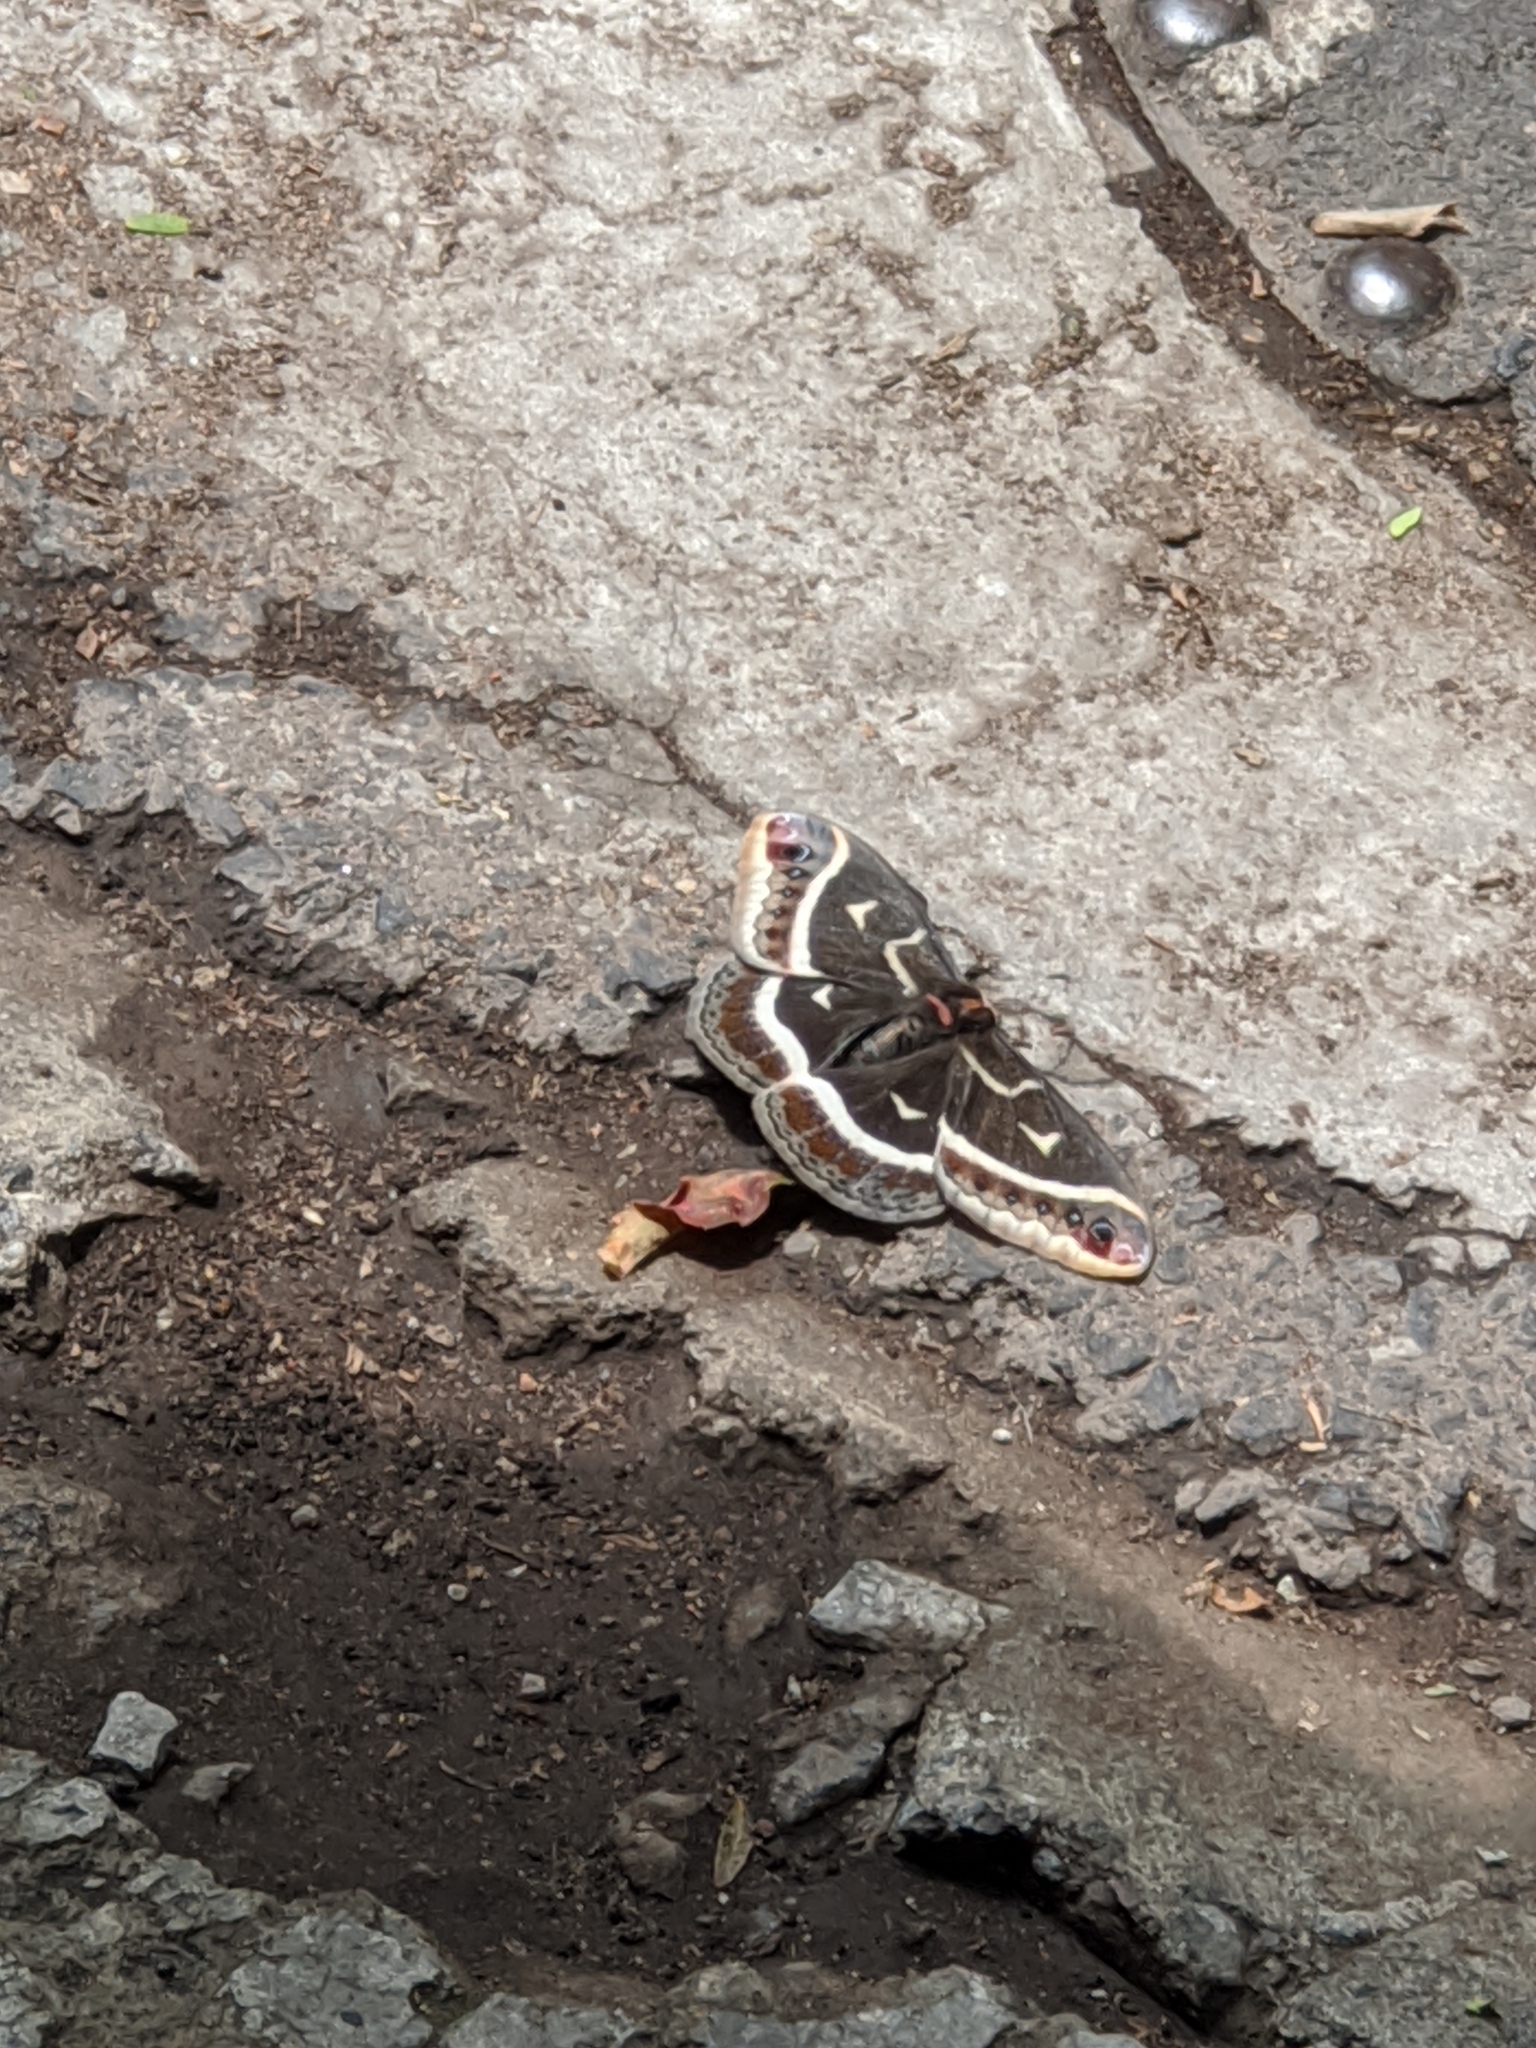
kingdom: Animalia
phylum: Arthropoda
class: Insecta
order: Lepidoptera
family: Saturniidae
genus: Eupackardia
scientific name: Eupackardia calleta
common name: Calleta silkmoth
